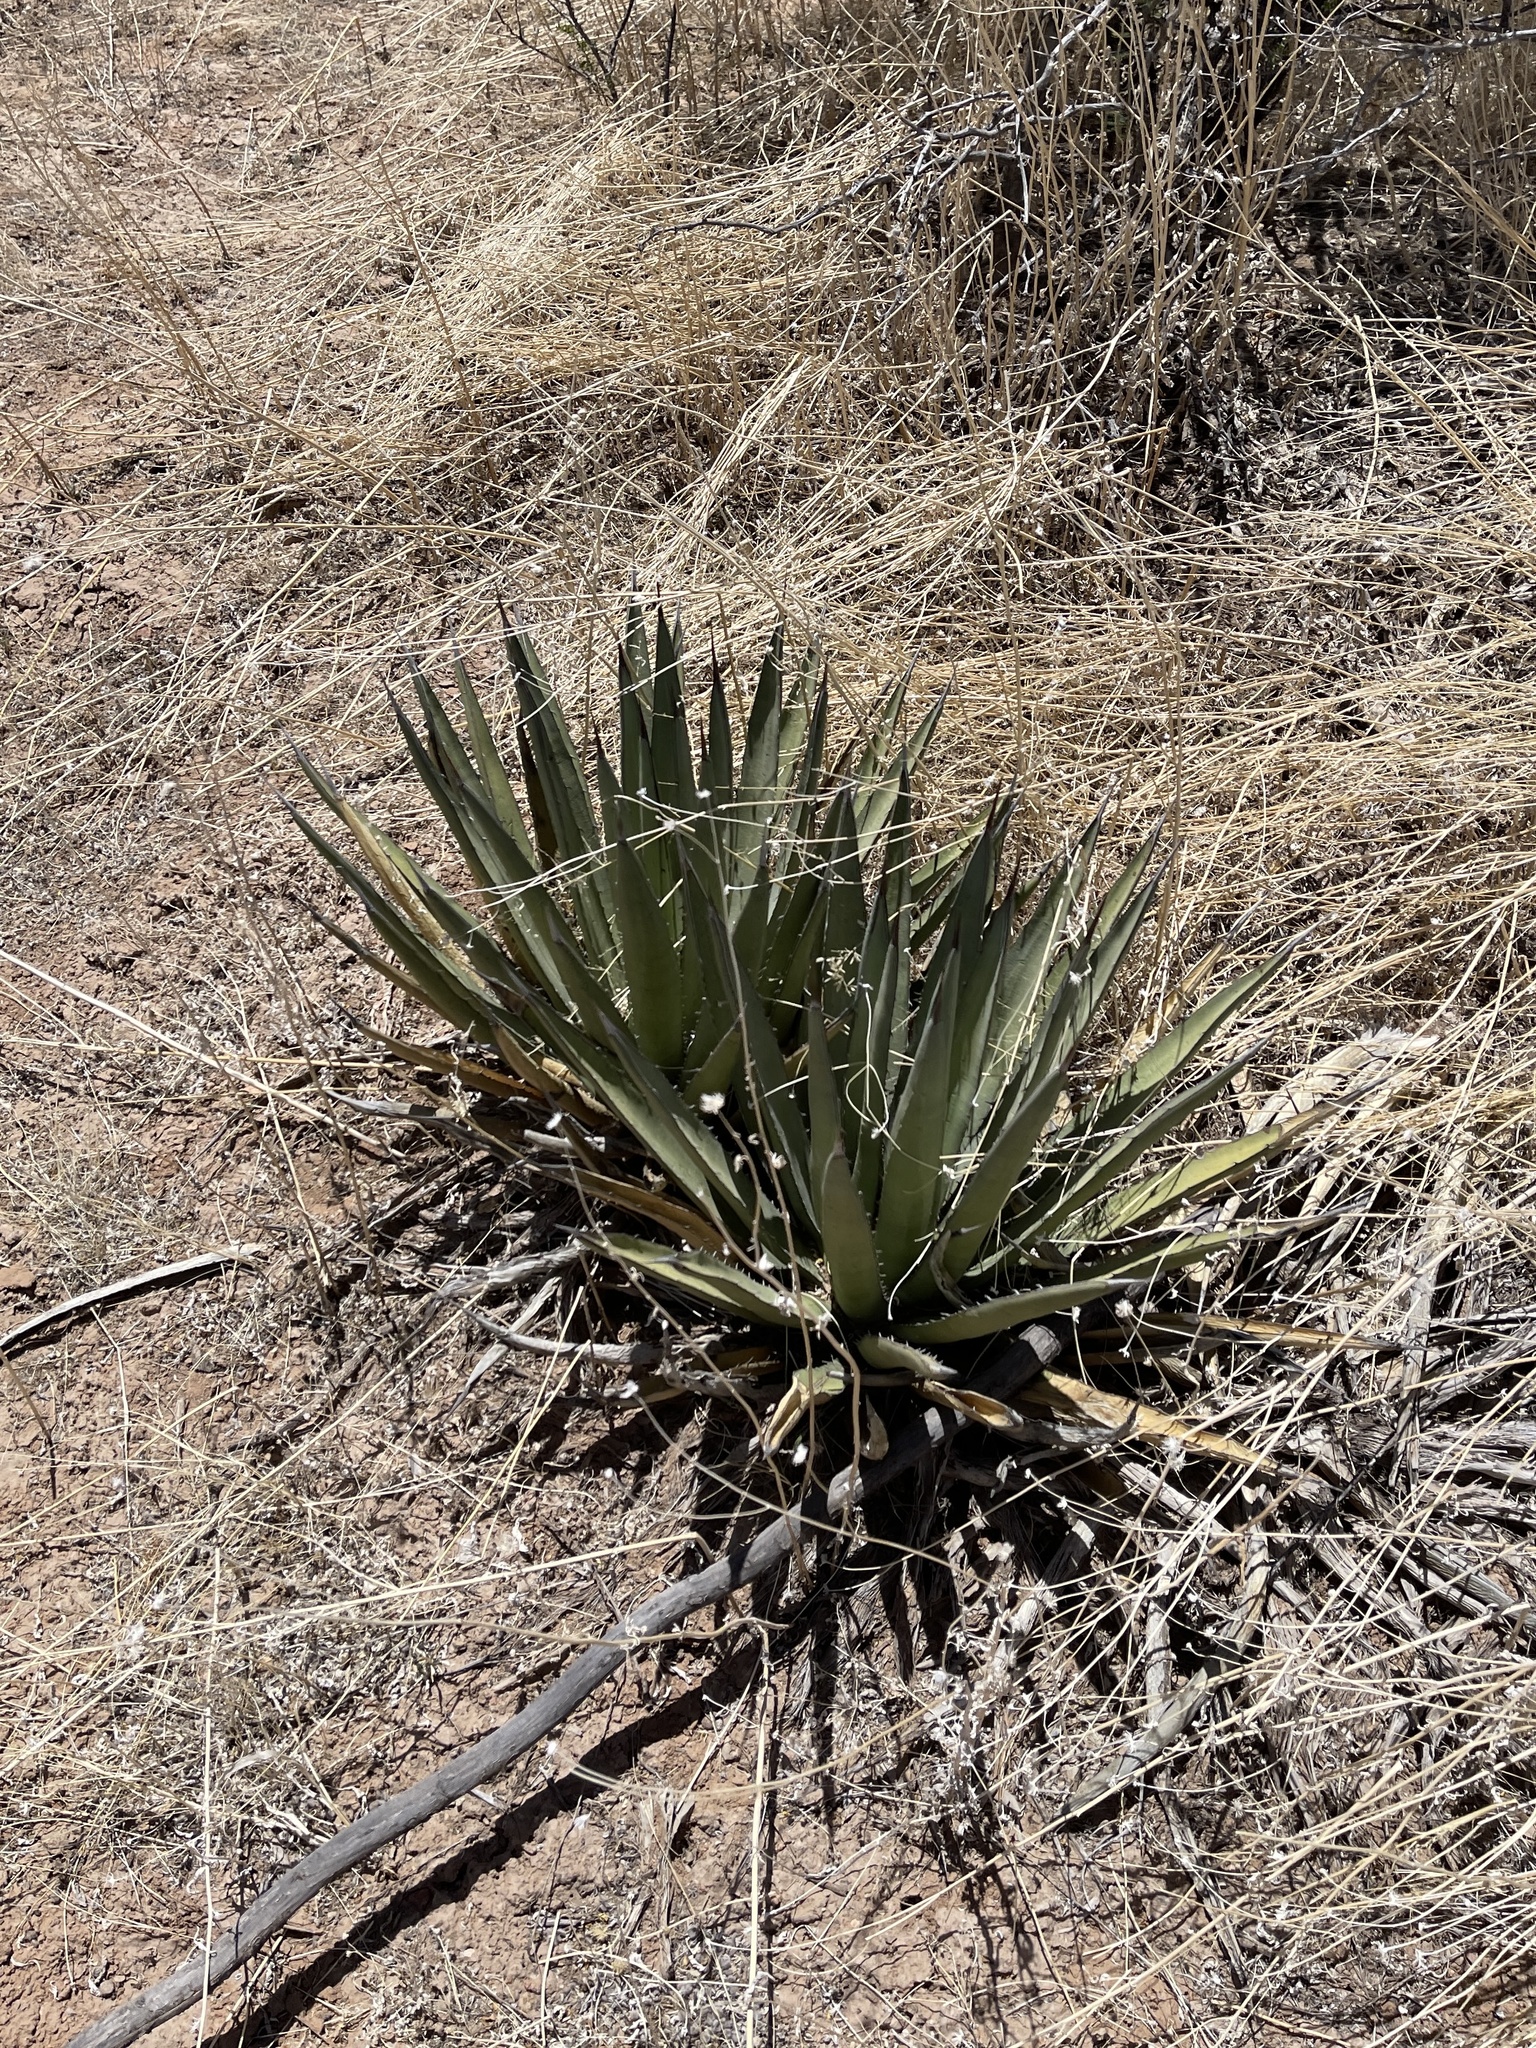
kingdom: Plantae
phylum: Tracheophyta
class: Liliopsida
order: Asparagales
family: Asparagaceae
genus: Agave
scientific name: Agave lechuguilla
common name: Lecheguilla agave
